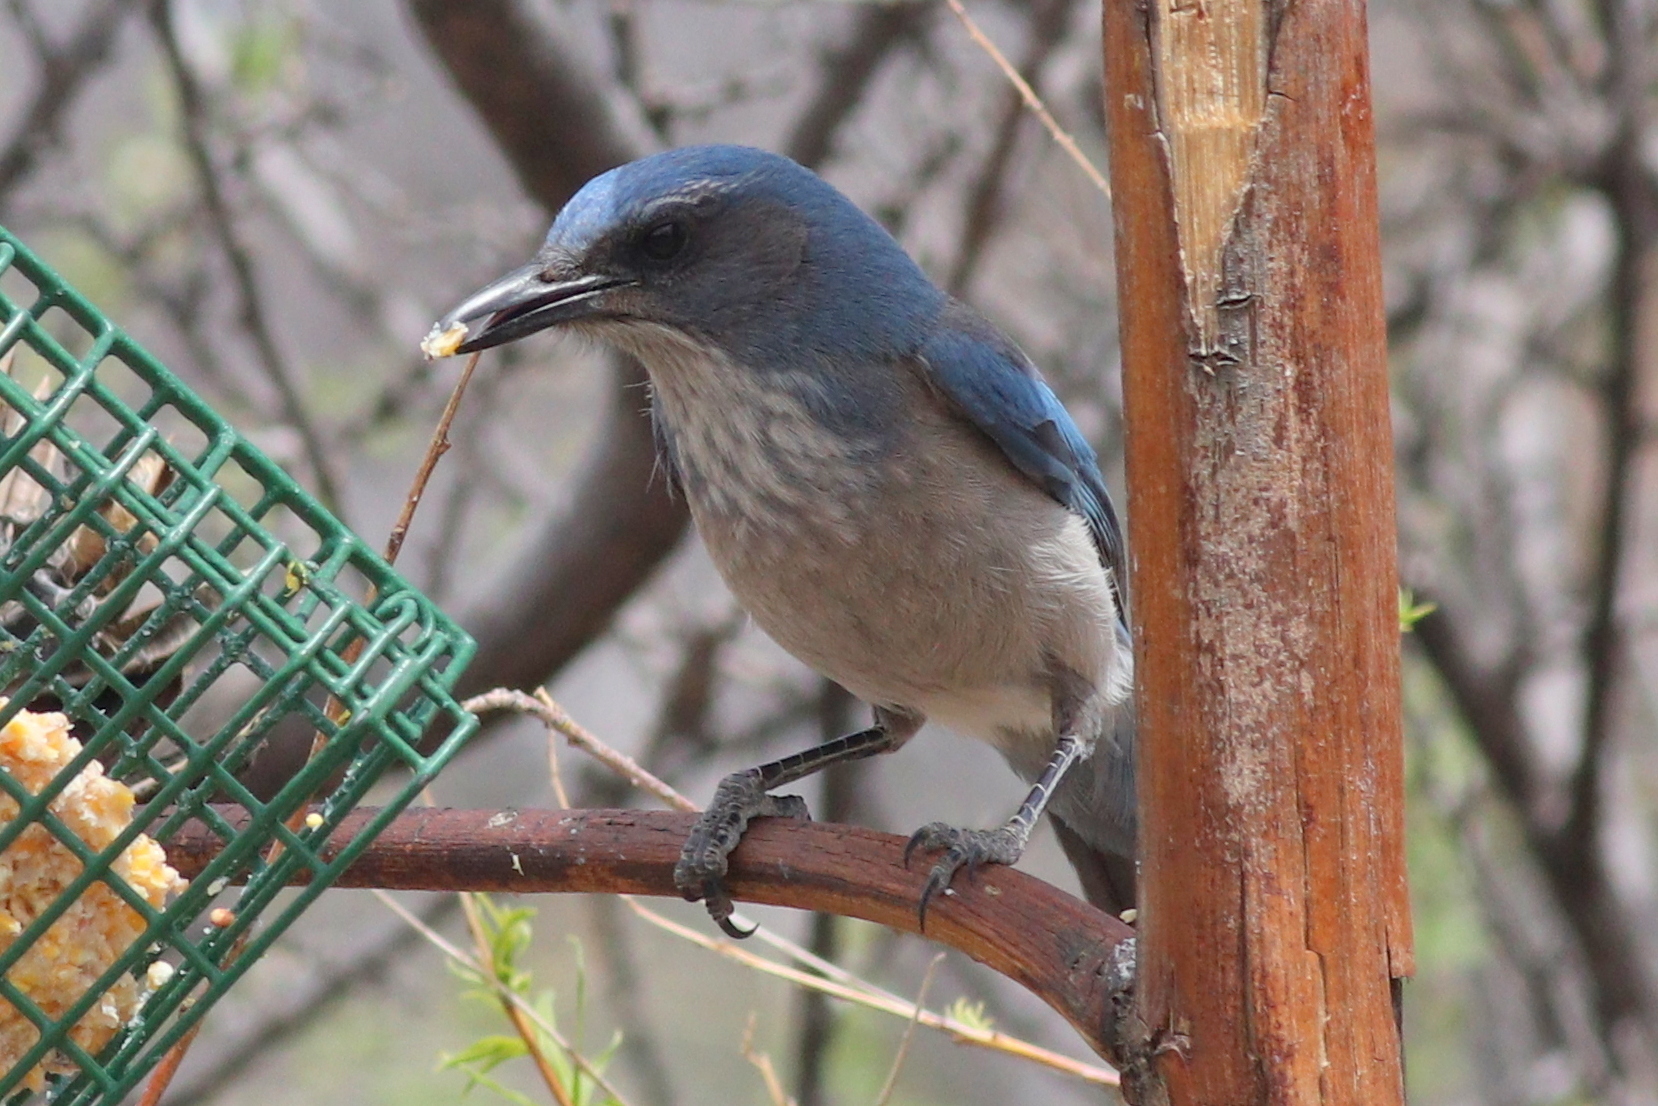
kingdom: Animalia
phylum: Chordata
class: Aves
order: Passeriformes
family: Corvidae
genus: Aphelocoma
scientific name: Aphelocoma woodhouseii
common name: Woodhouse's scrub-jay
